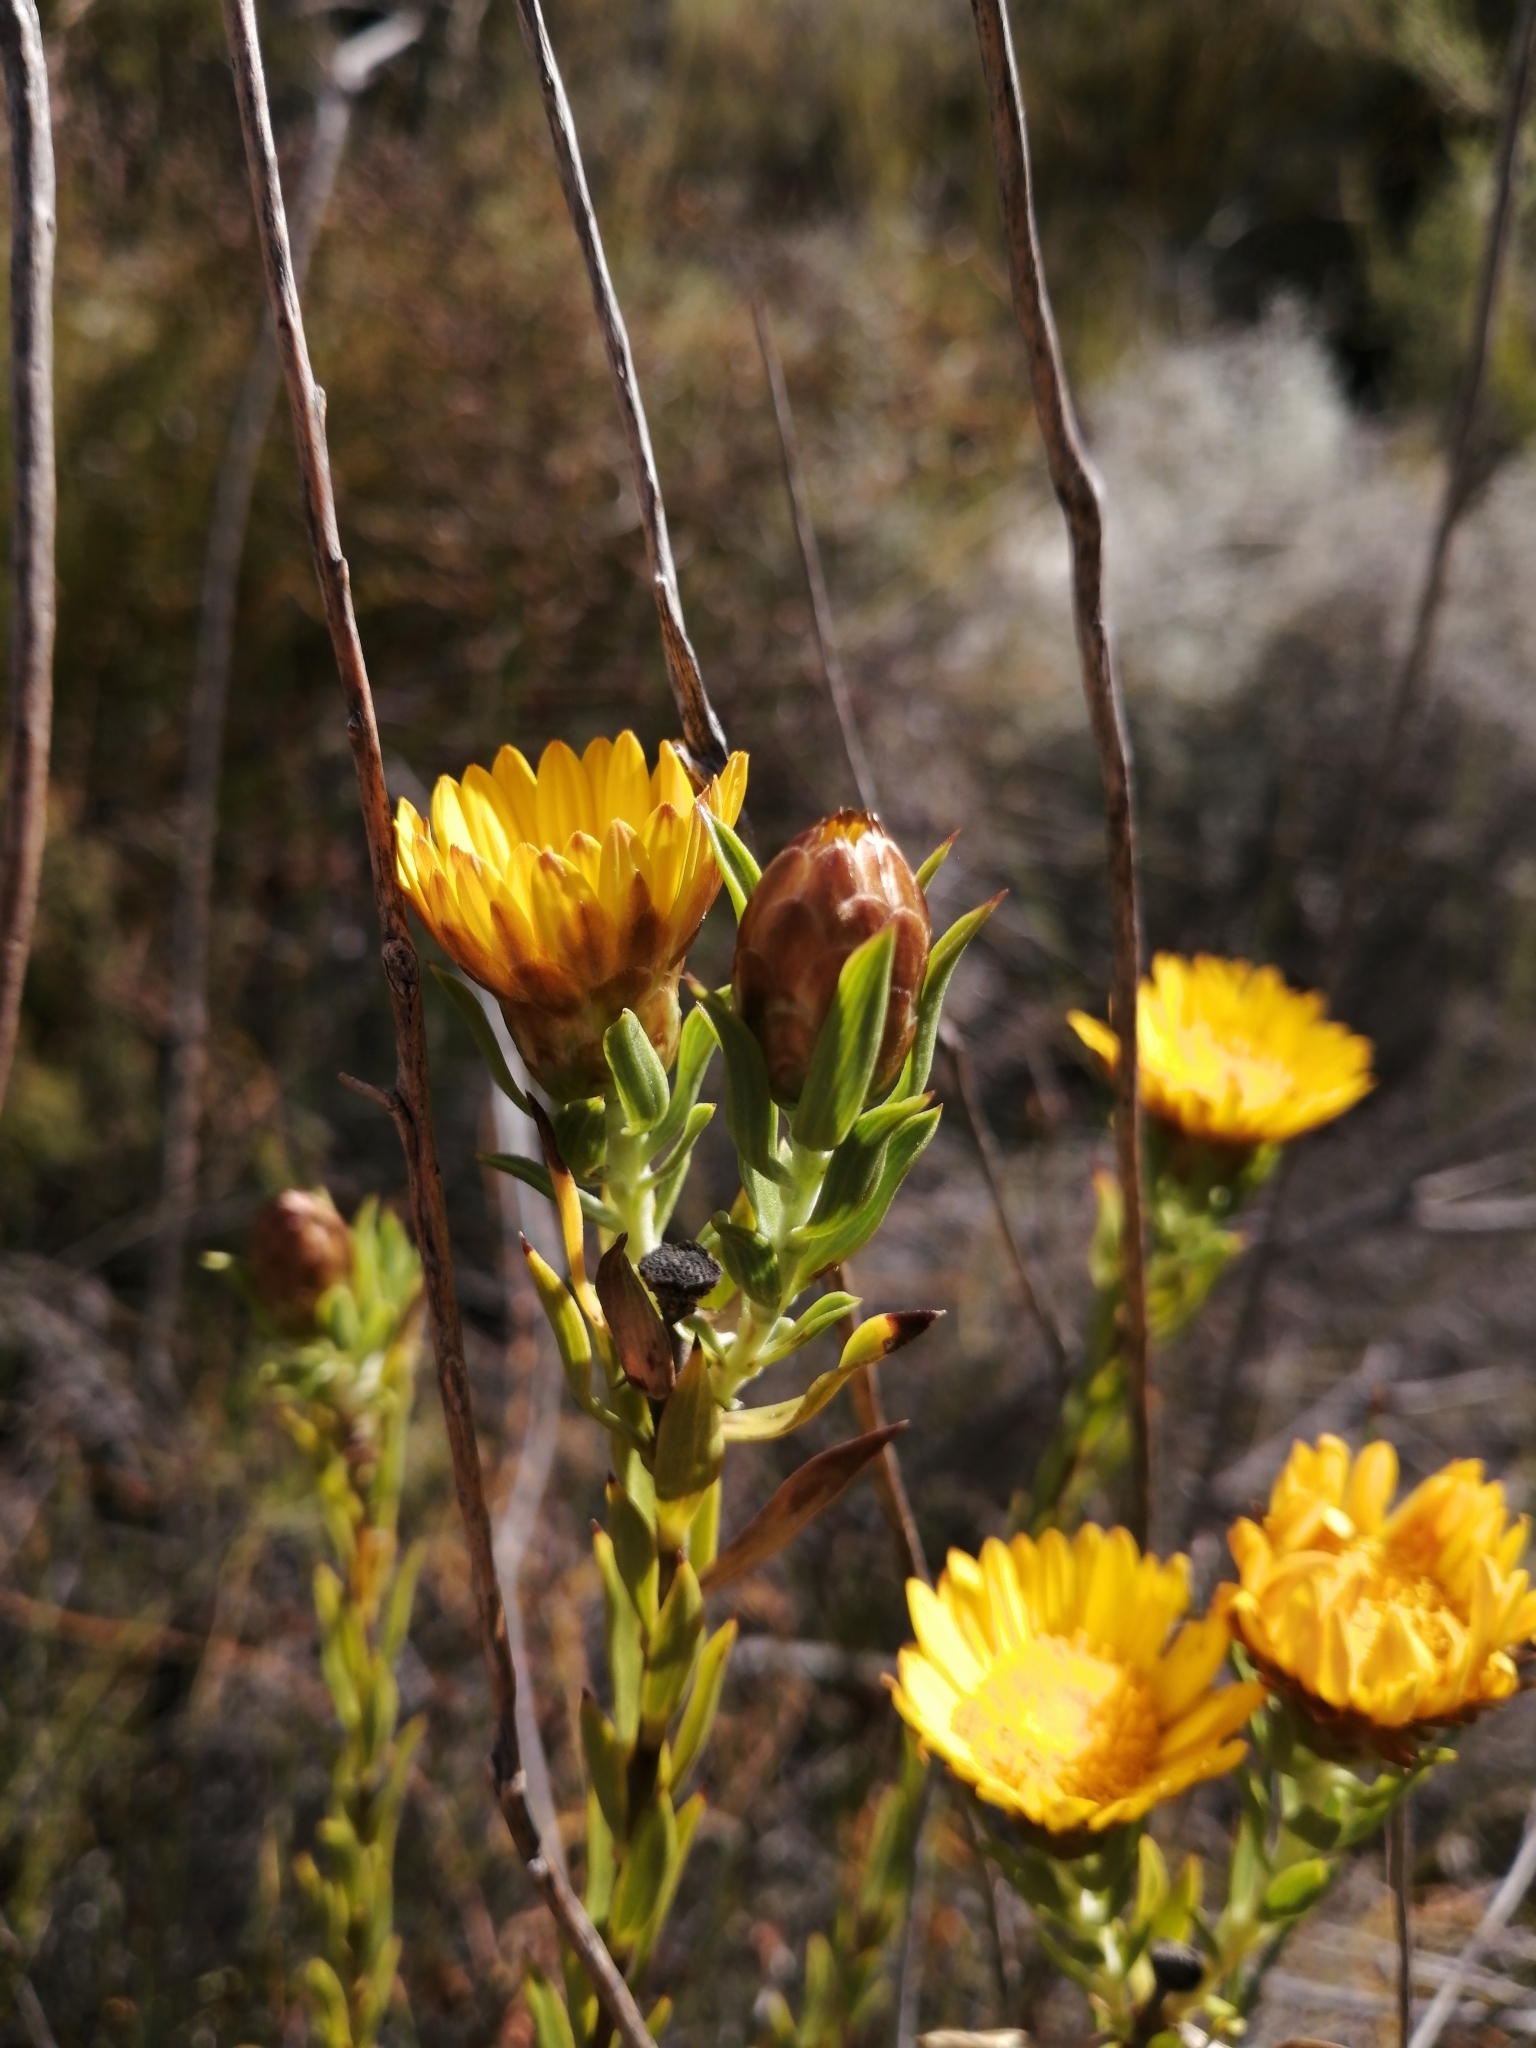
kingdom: Plantae
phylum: Tracheophyta
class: Magnoliopsida
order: Asterales
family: Asteraceae
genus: Oedera
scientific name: Oedera calycina
